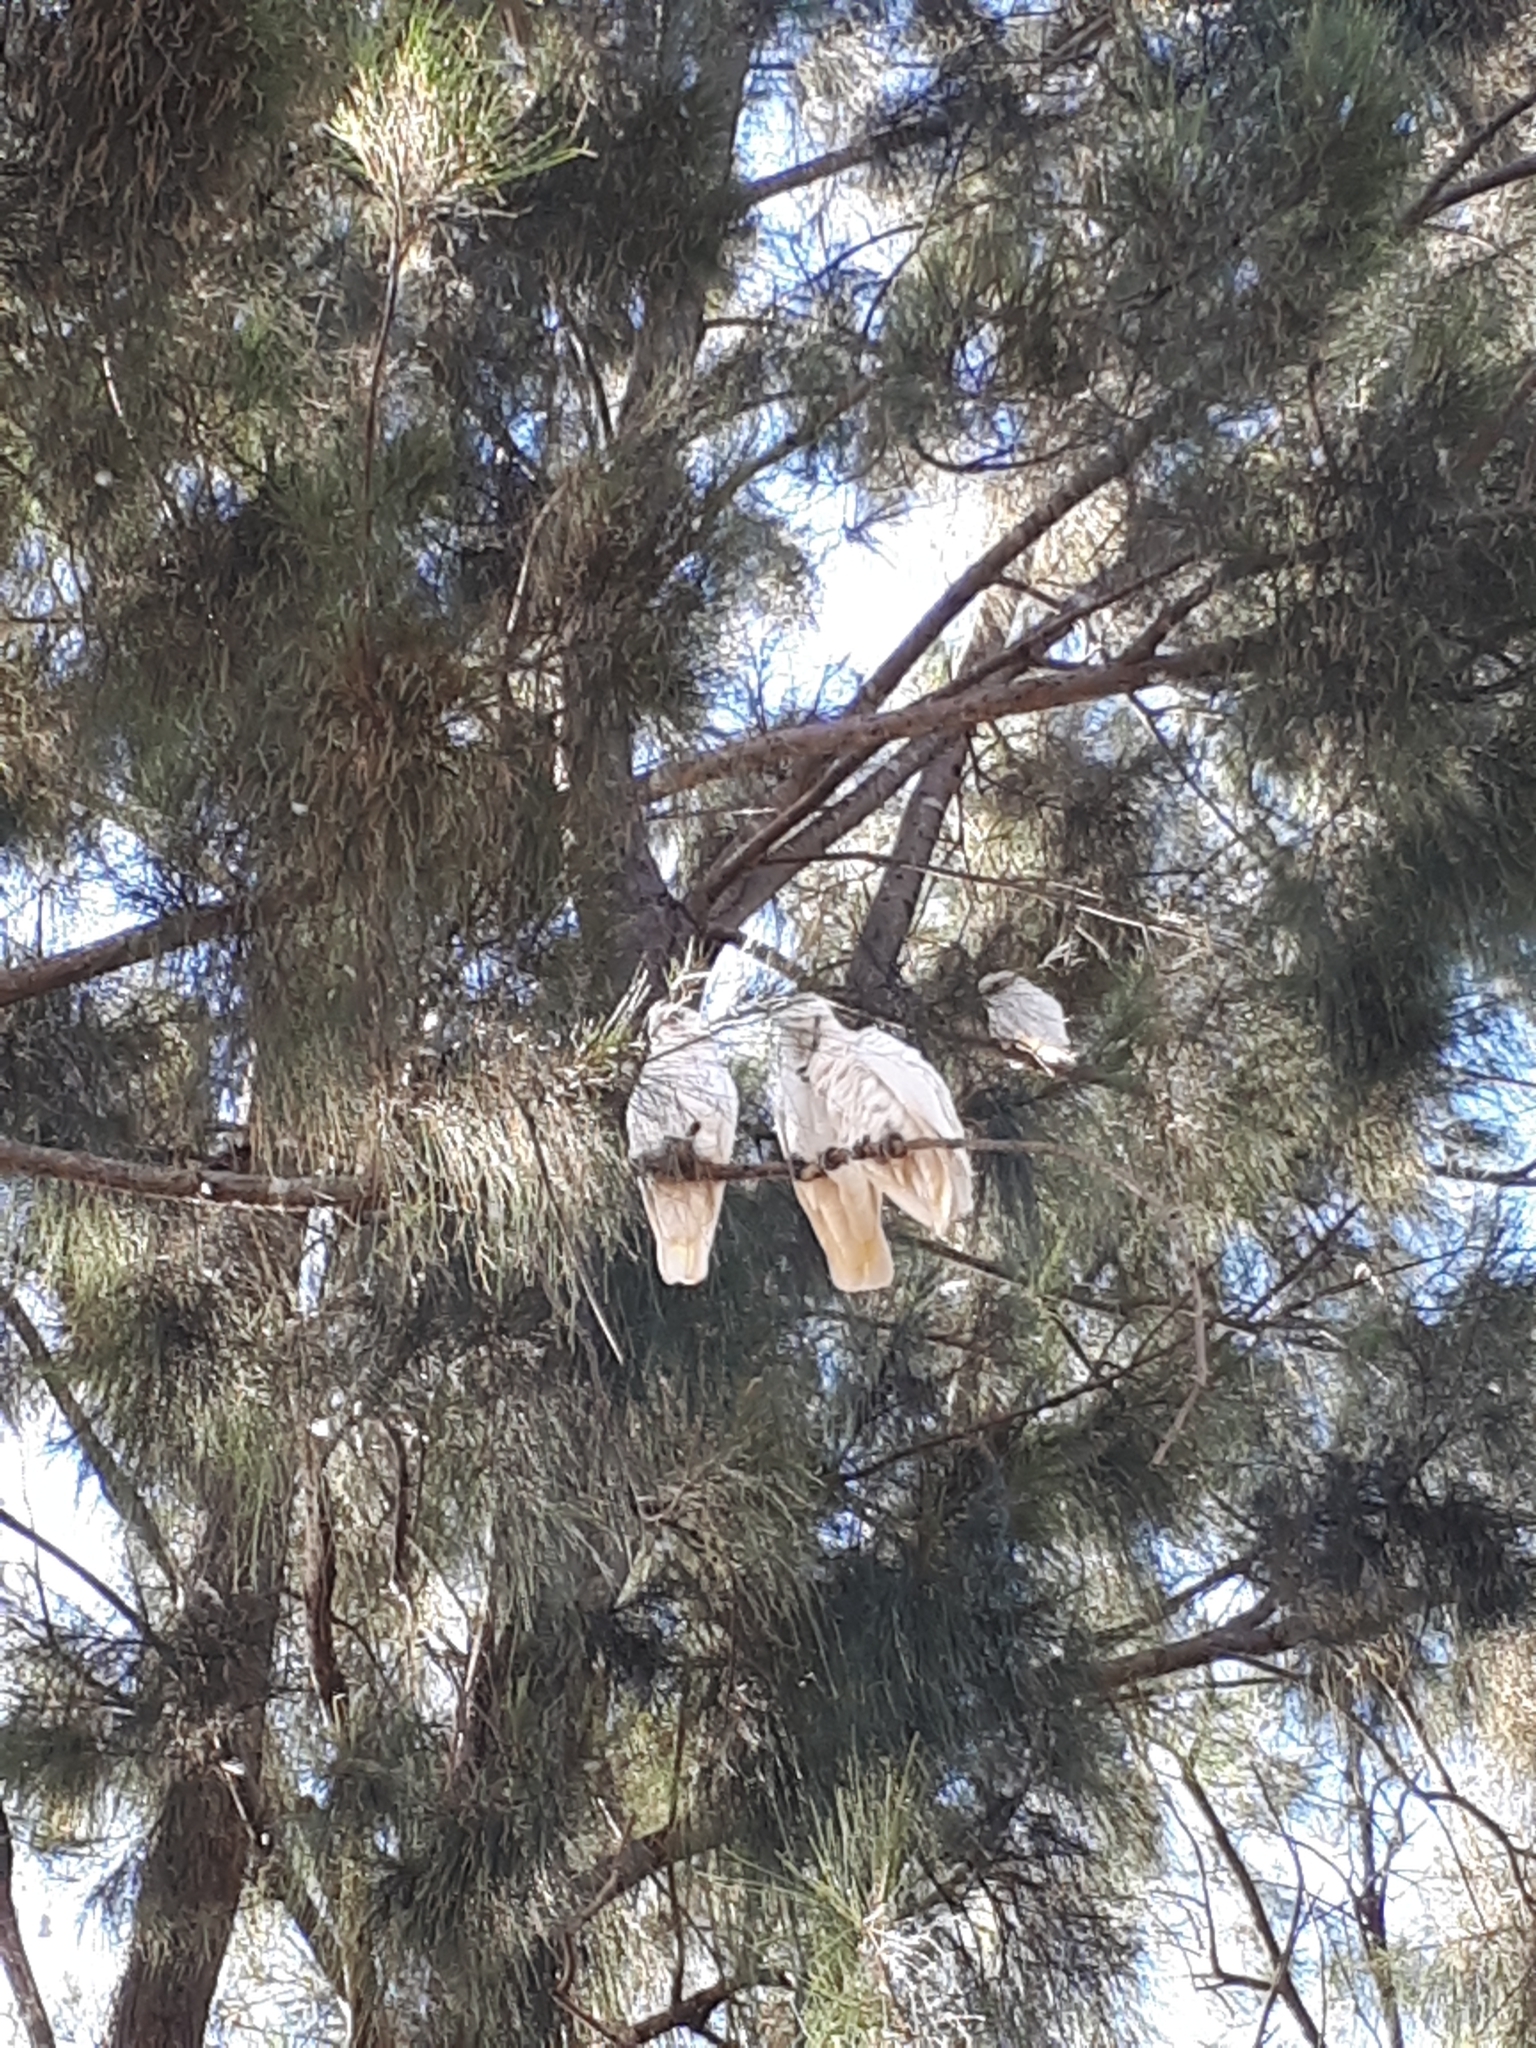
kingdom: Animalia
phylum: Chordata
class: Aves
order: Psittaciformes
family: Psittacidae
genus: Cacatua
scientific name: Cacatua sanguinea
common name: Little corella
